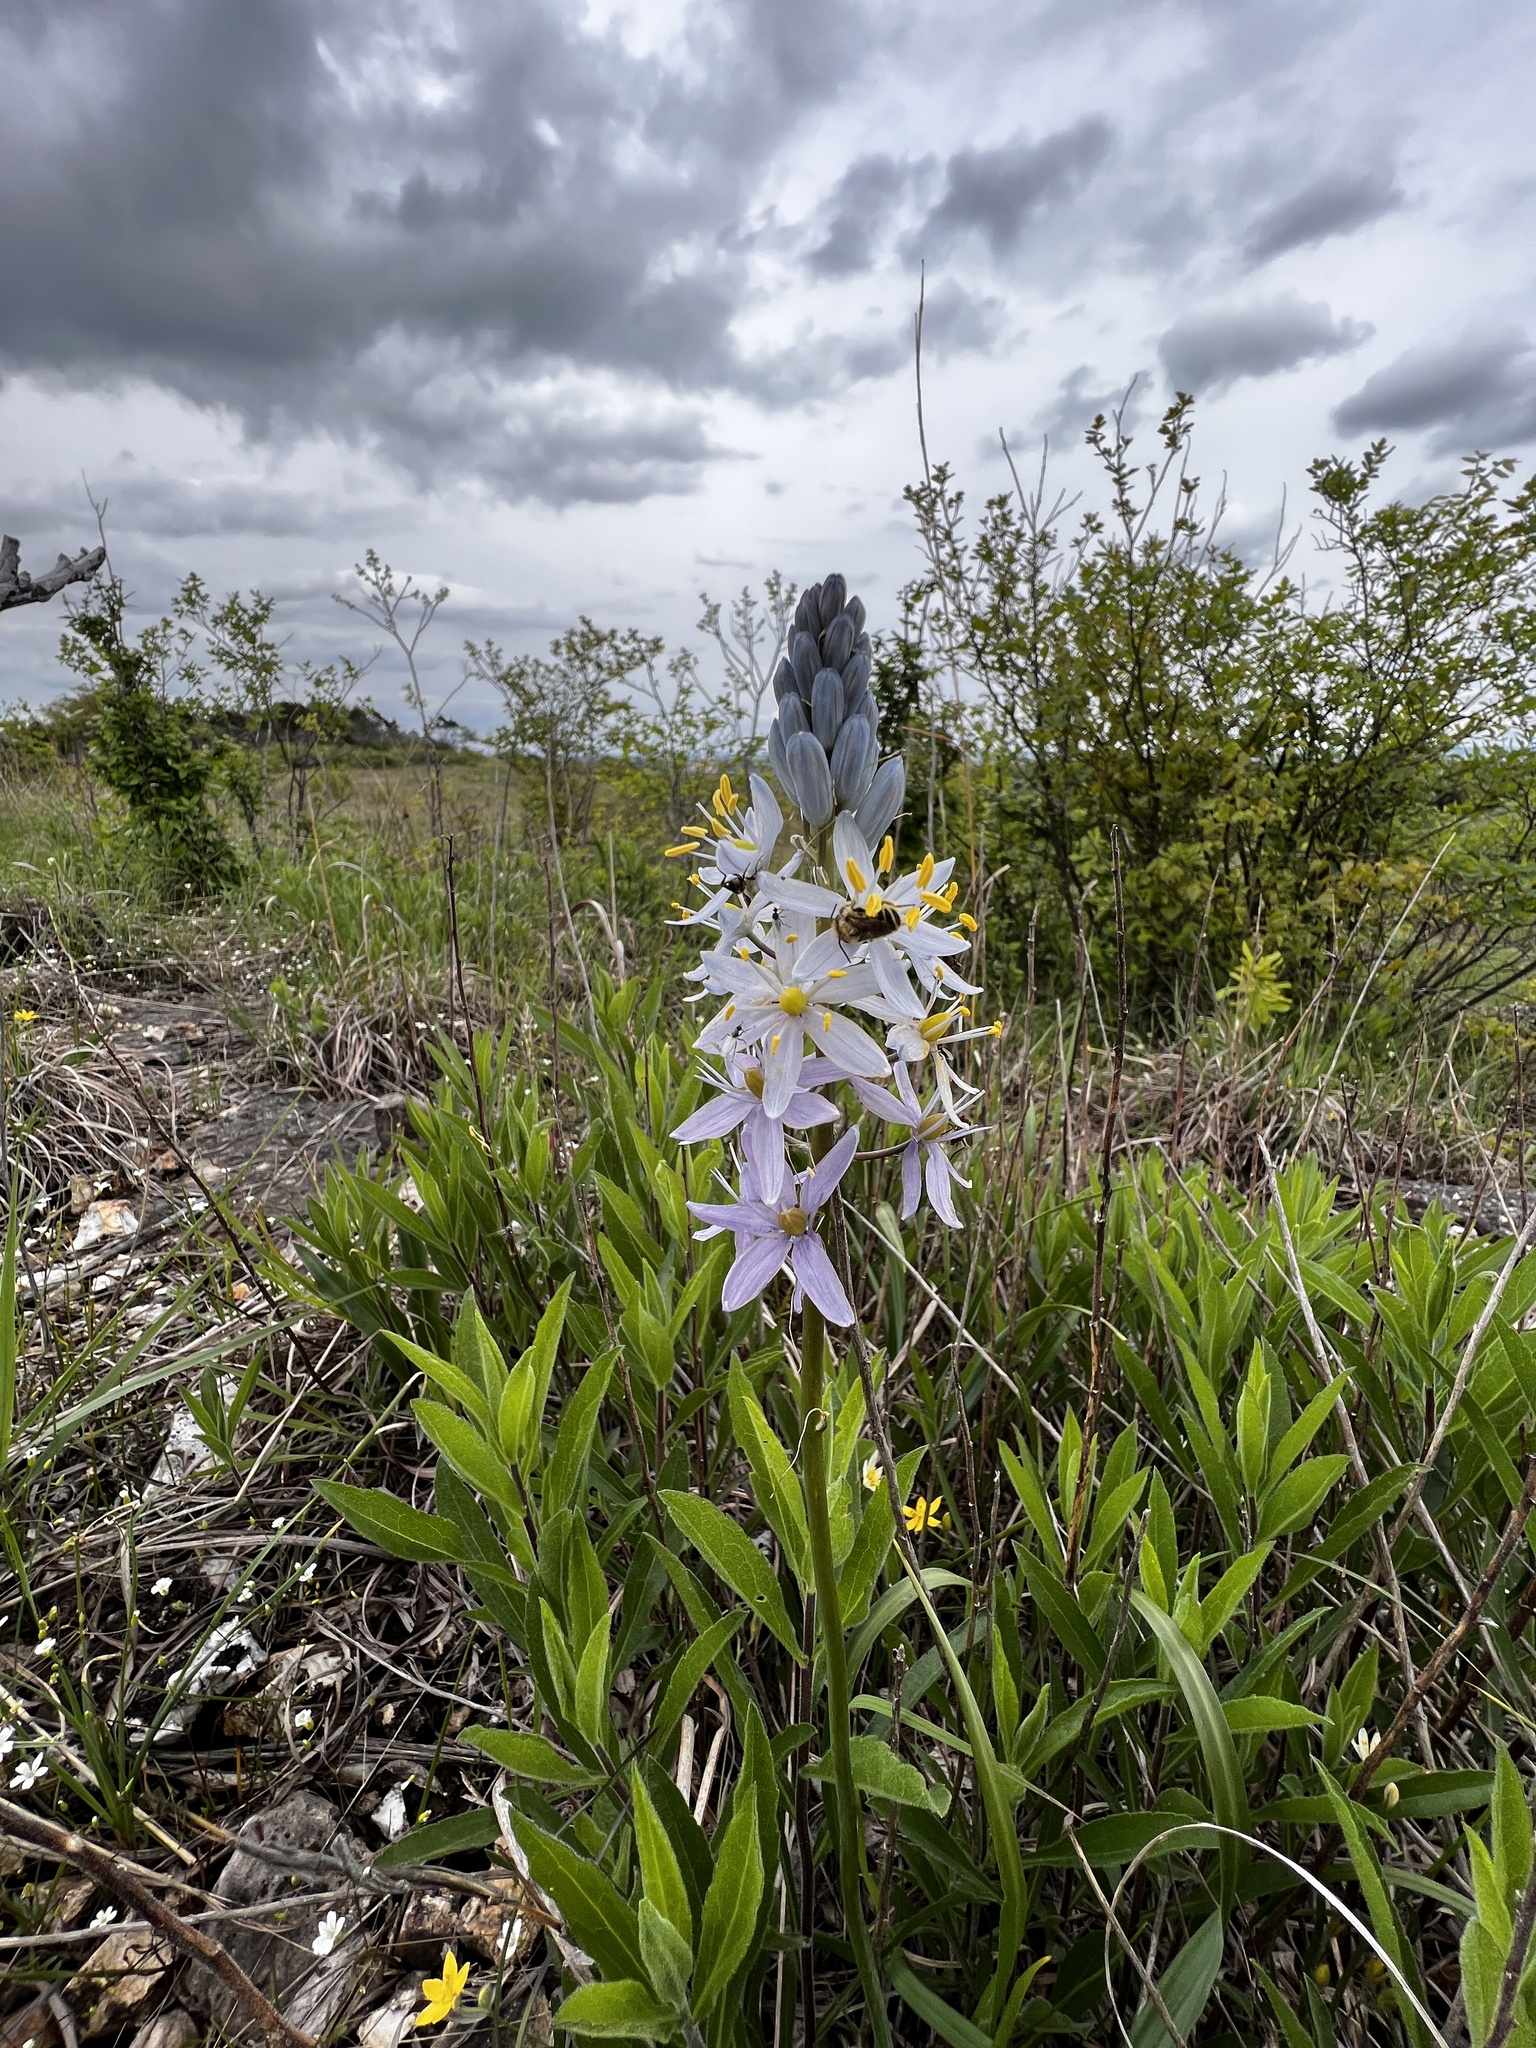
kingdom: Plantae
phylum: Tracheophyta
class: Liliopsida
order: Asparagales
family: Asparagaceae
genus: Camassia
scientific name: Camassia scilloides
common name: Wild hyacinth
